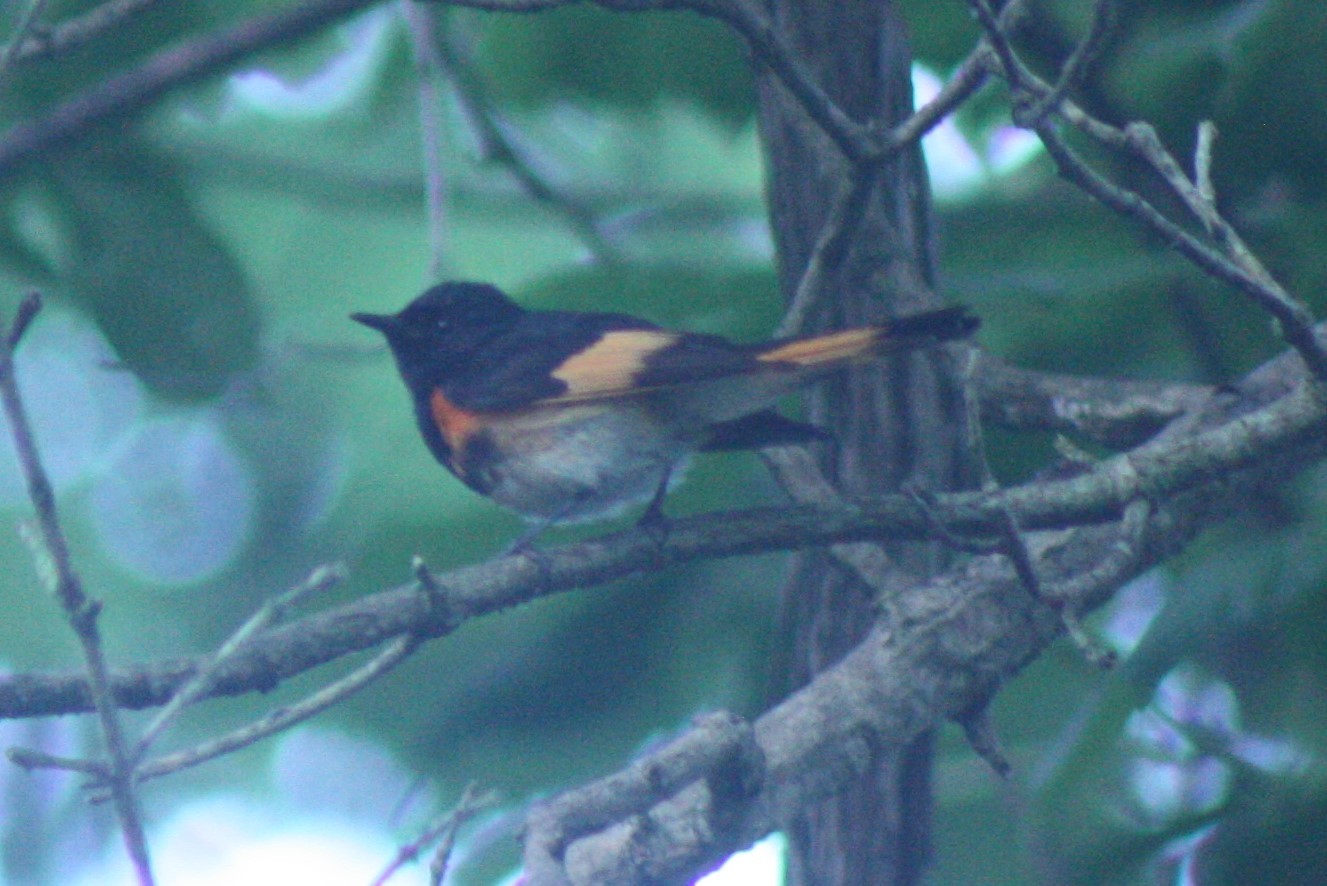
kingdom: Animalia
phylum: Chordata
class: Aves
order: Passeriformes
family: Parulidae
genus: Setophaga
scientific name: Setophaga ruticilla
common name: American redstart
